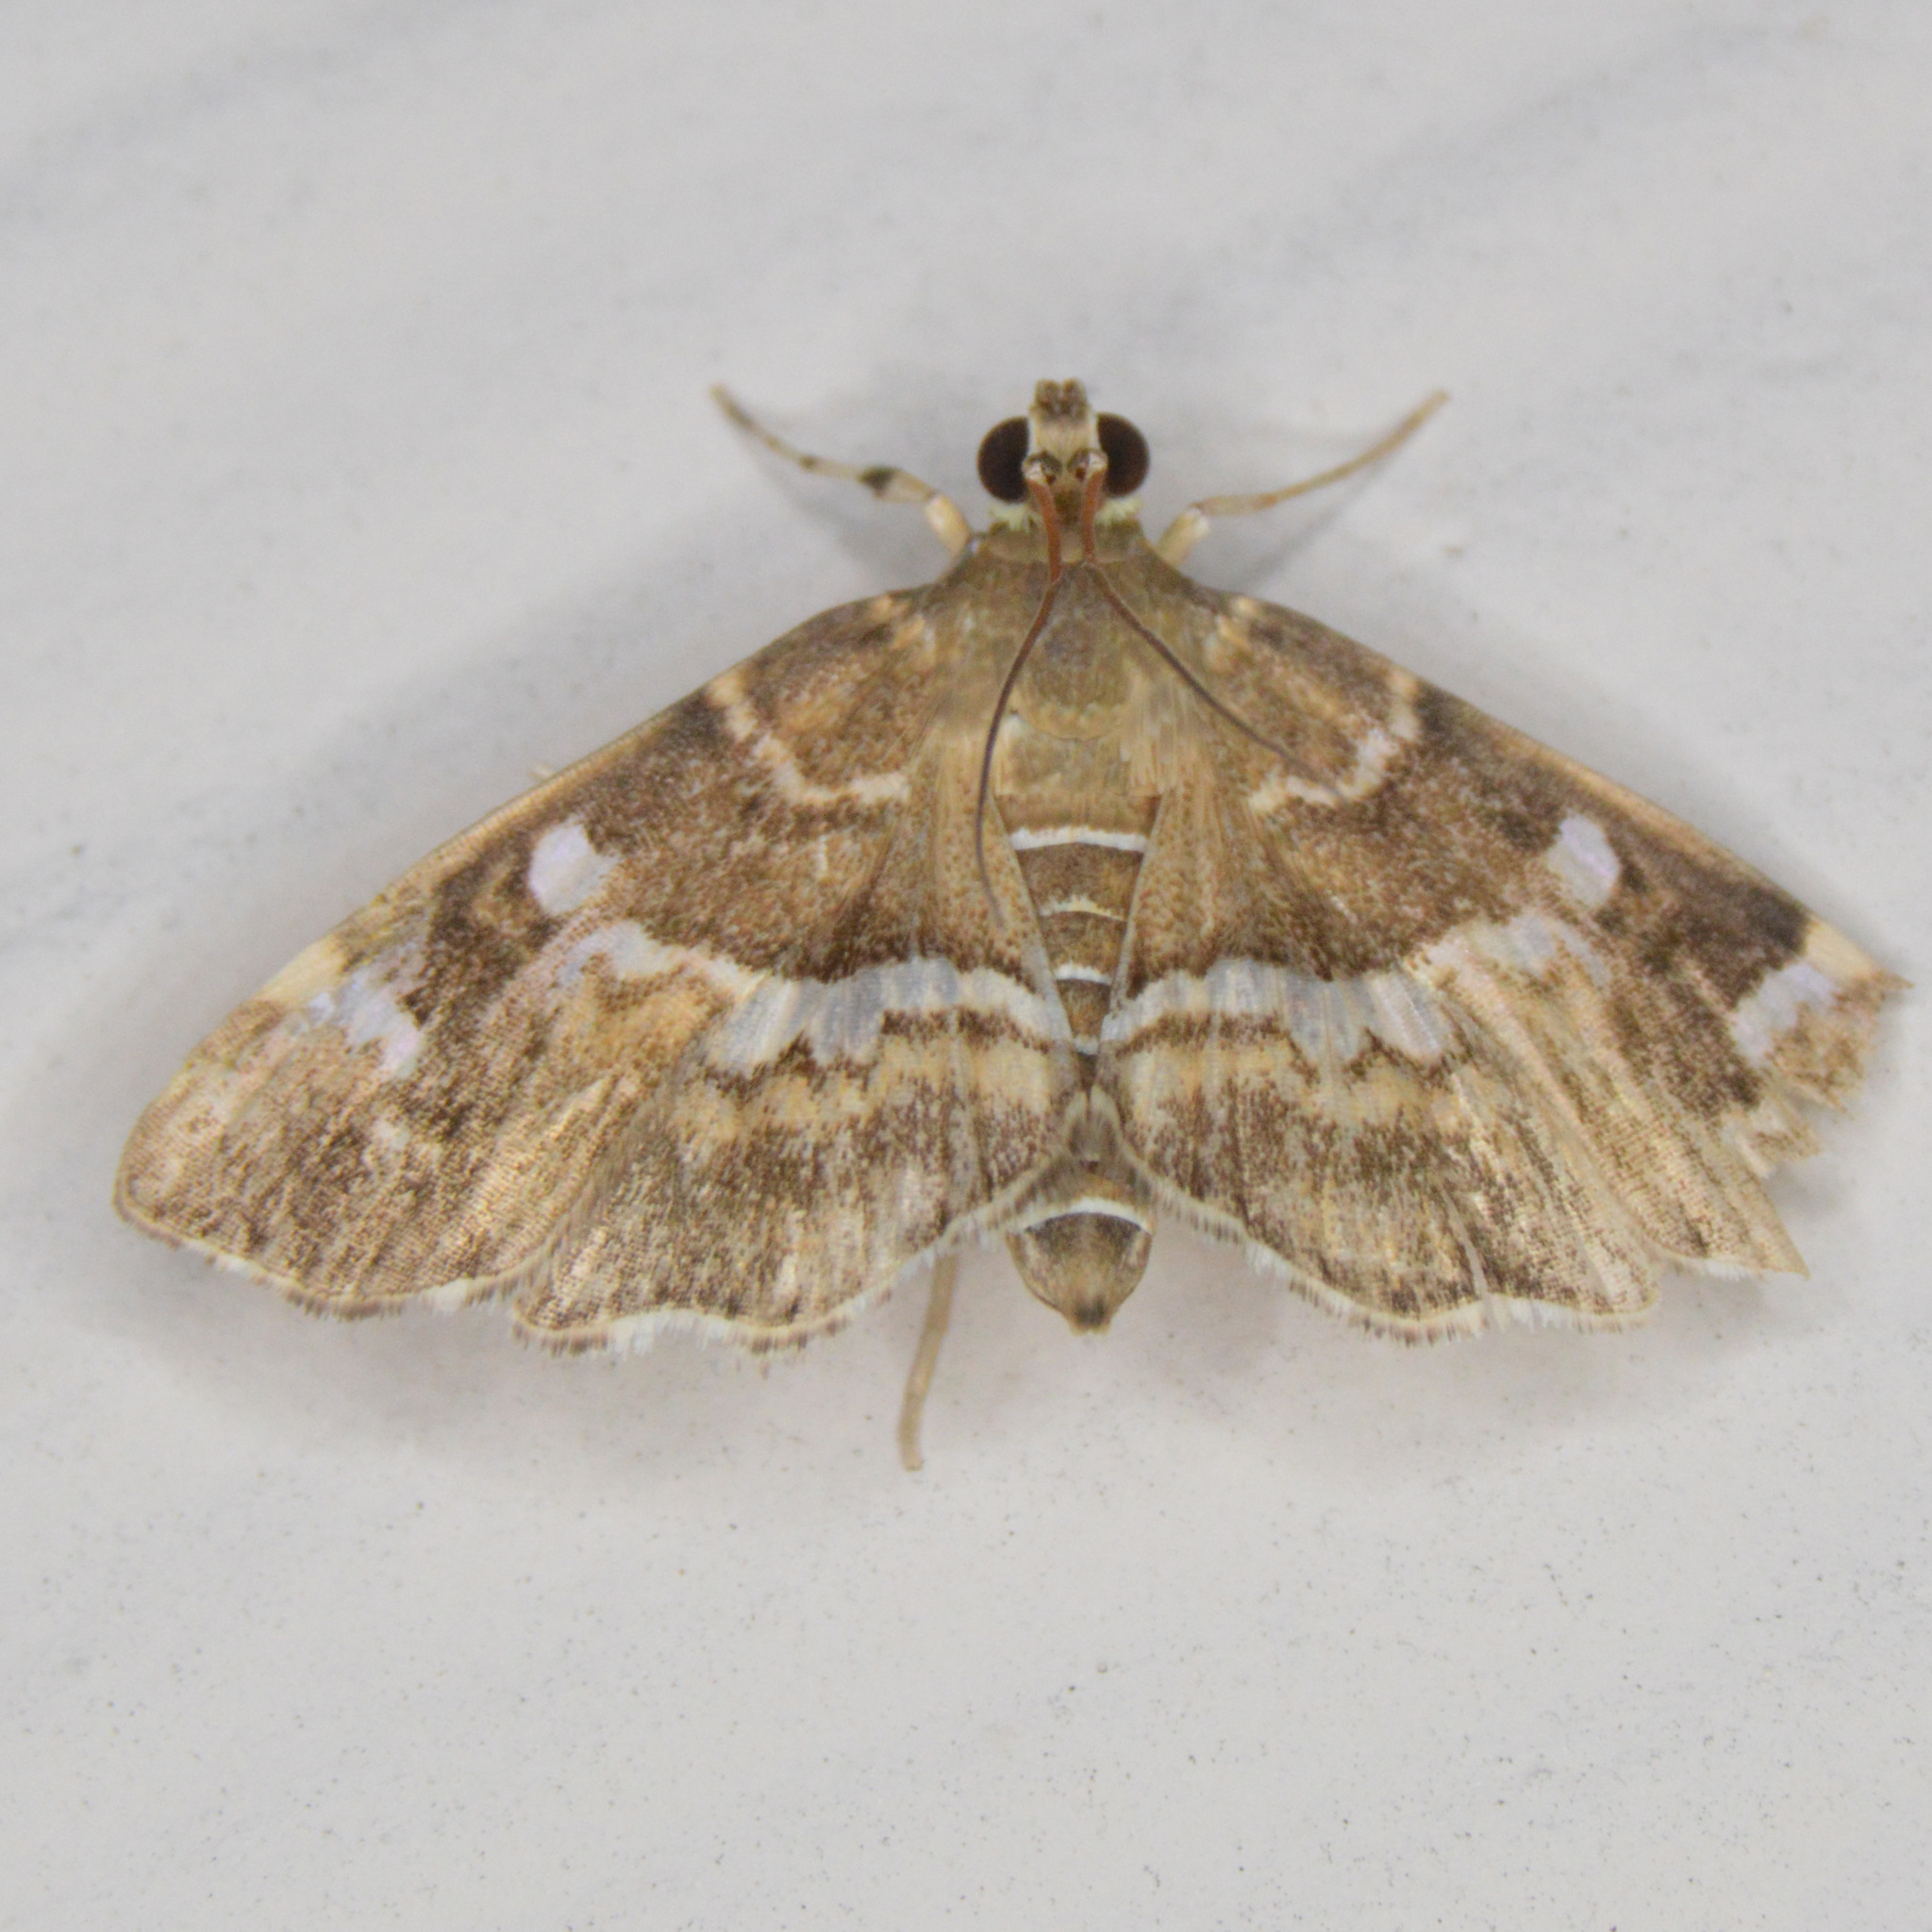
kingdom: Animalia
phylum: Arthropoda
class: Insecta
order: Lepidoptera
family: Crambidae
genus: Hymenia
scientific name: Hymenia perspectalis
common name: Spotted beet webworm
